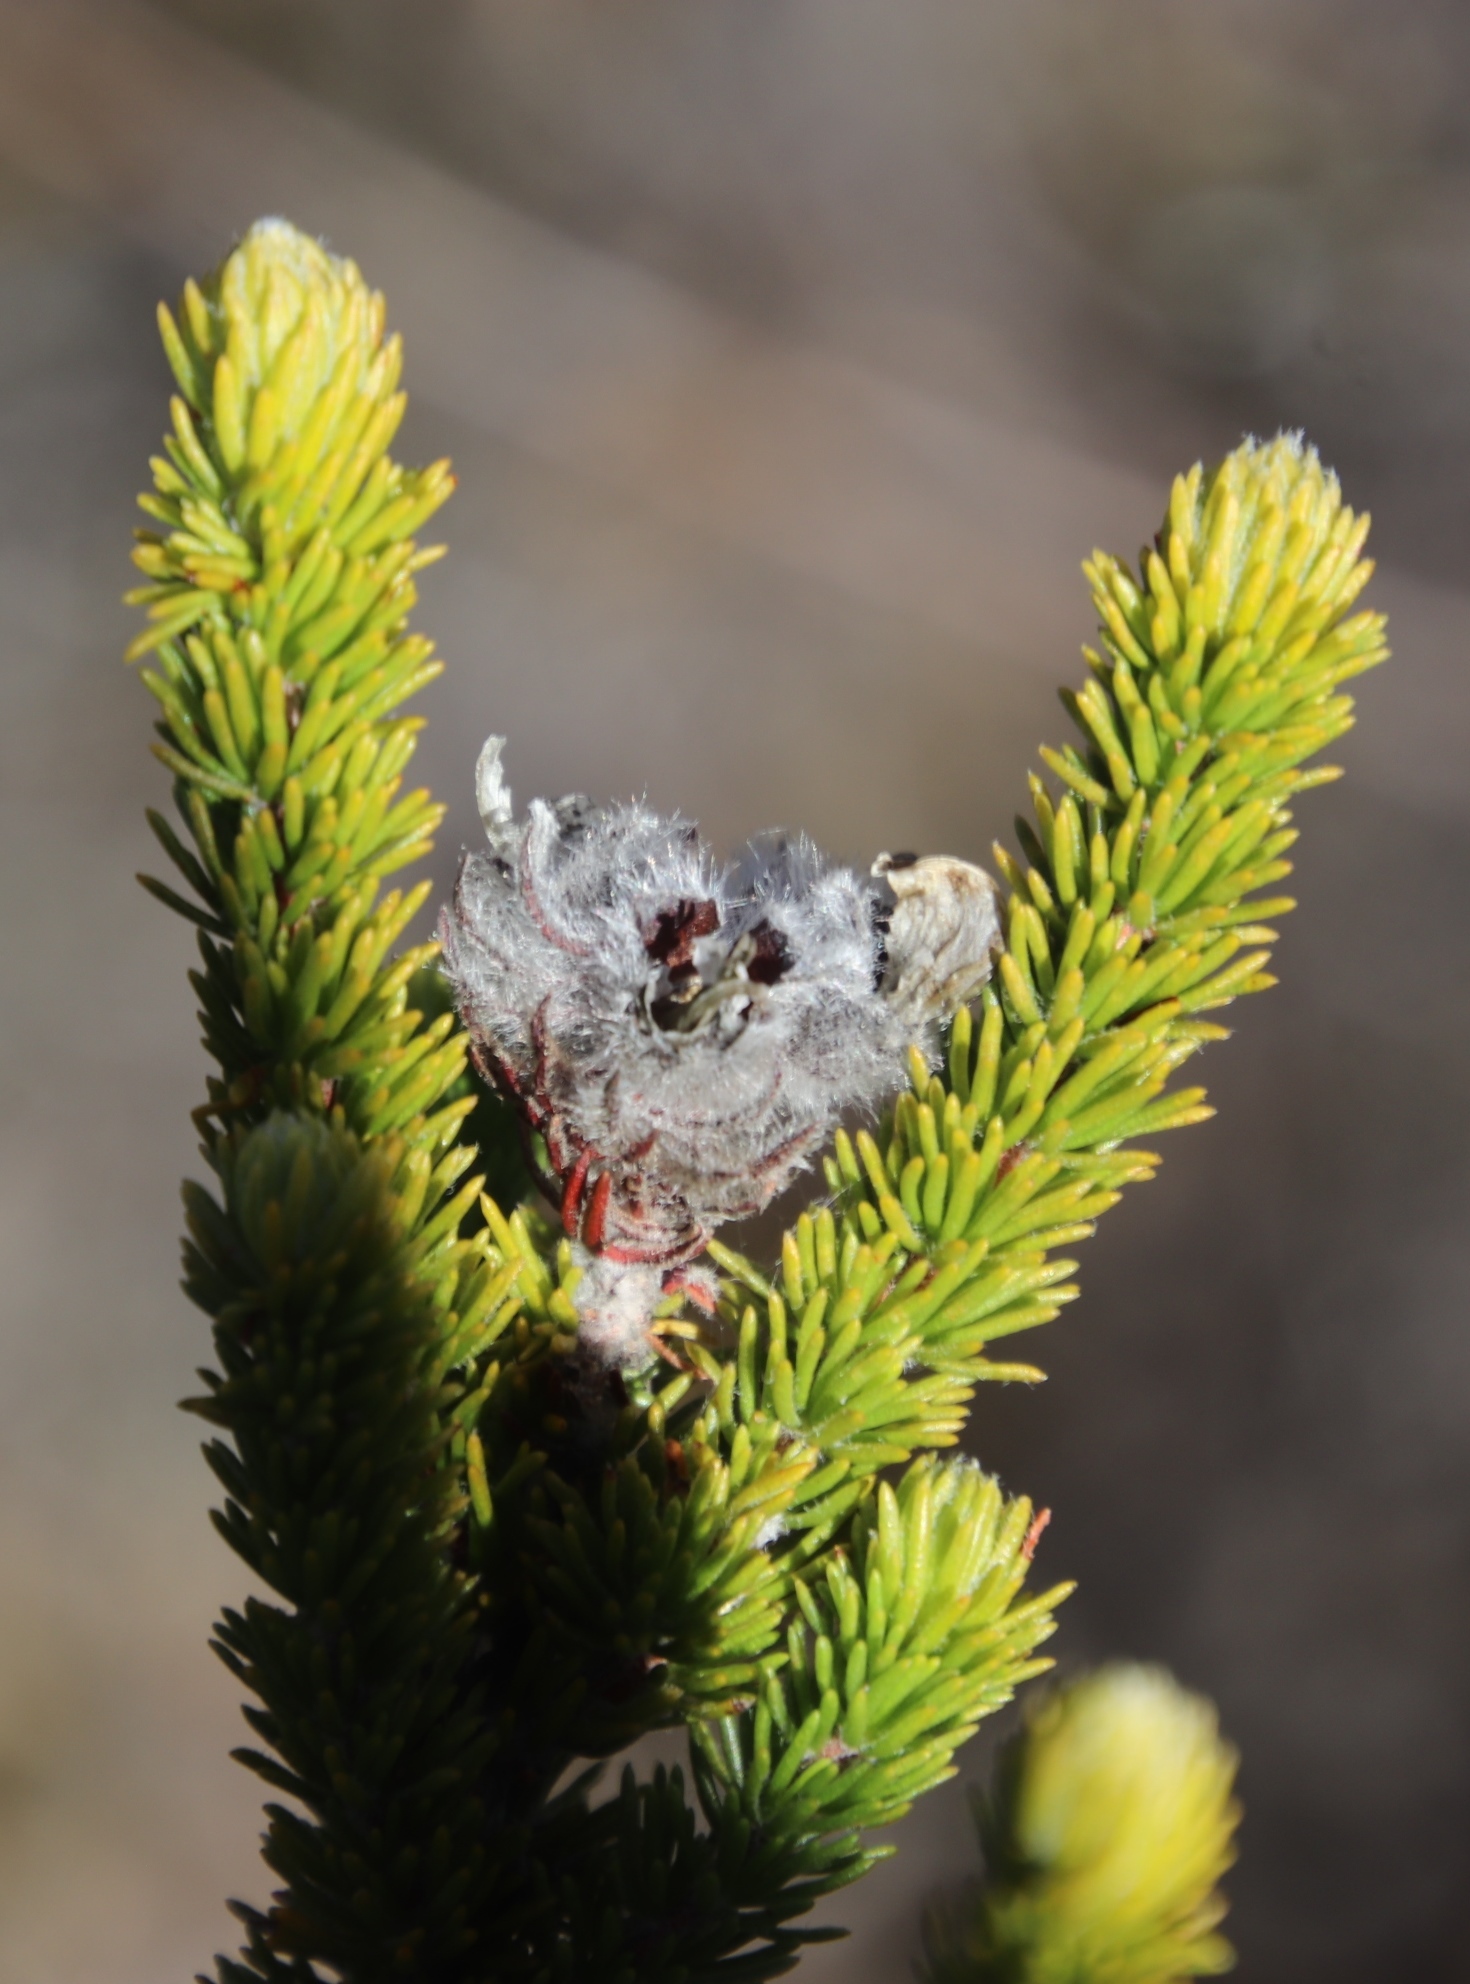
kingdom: Plantae
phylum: Tracheophyta
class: Magnoliopsida
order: Fabales
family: Fabaceae
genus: Aspalathus
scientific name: Aspalathus triquetra
